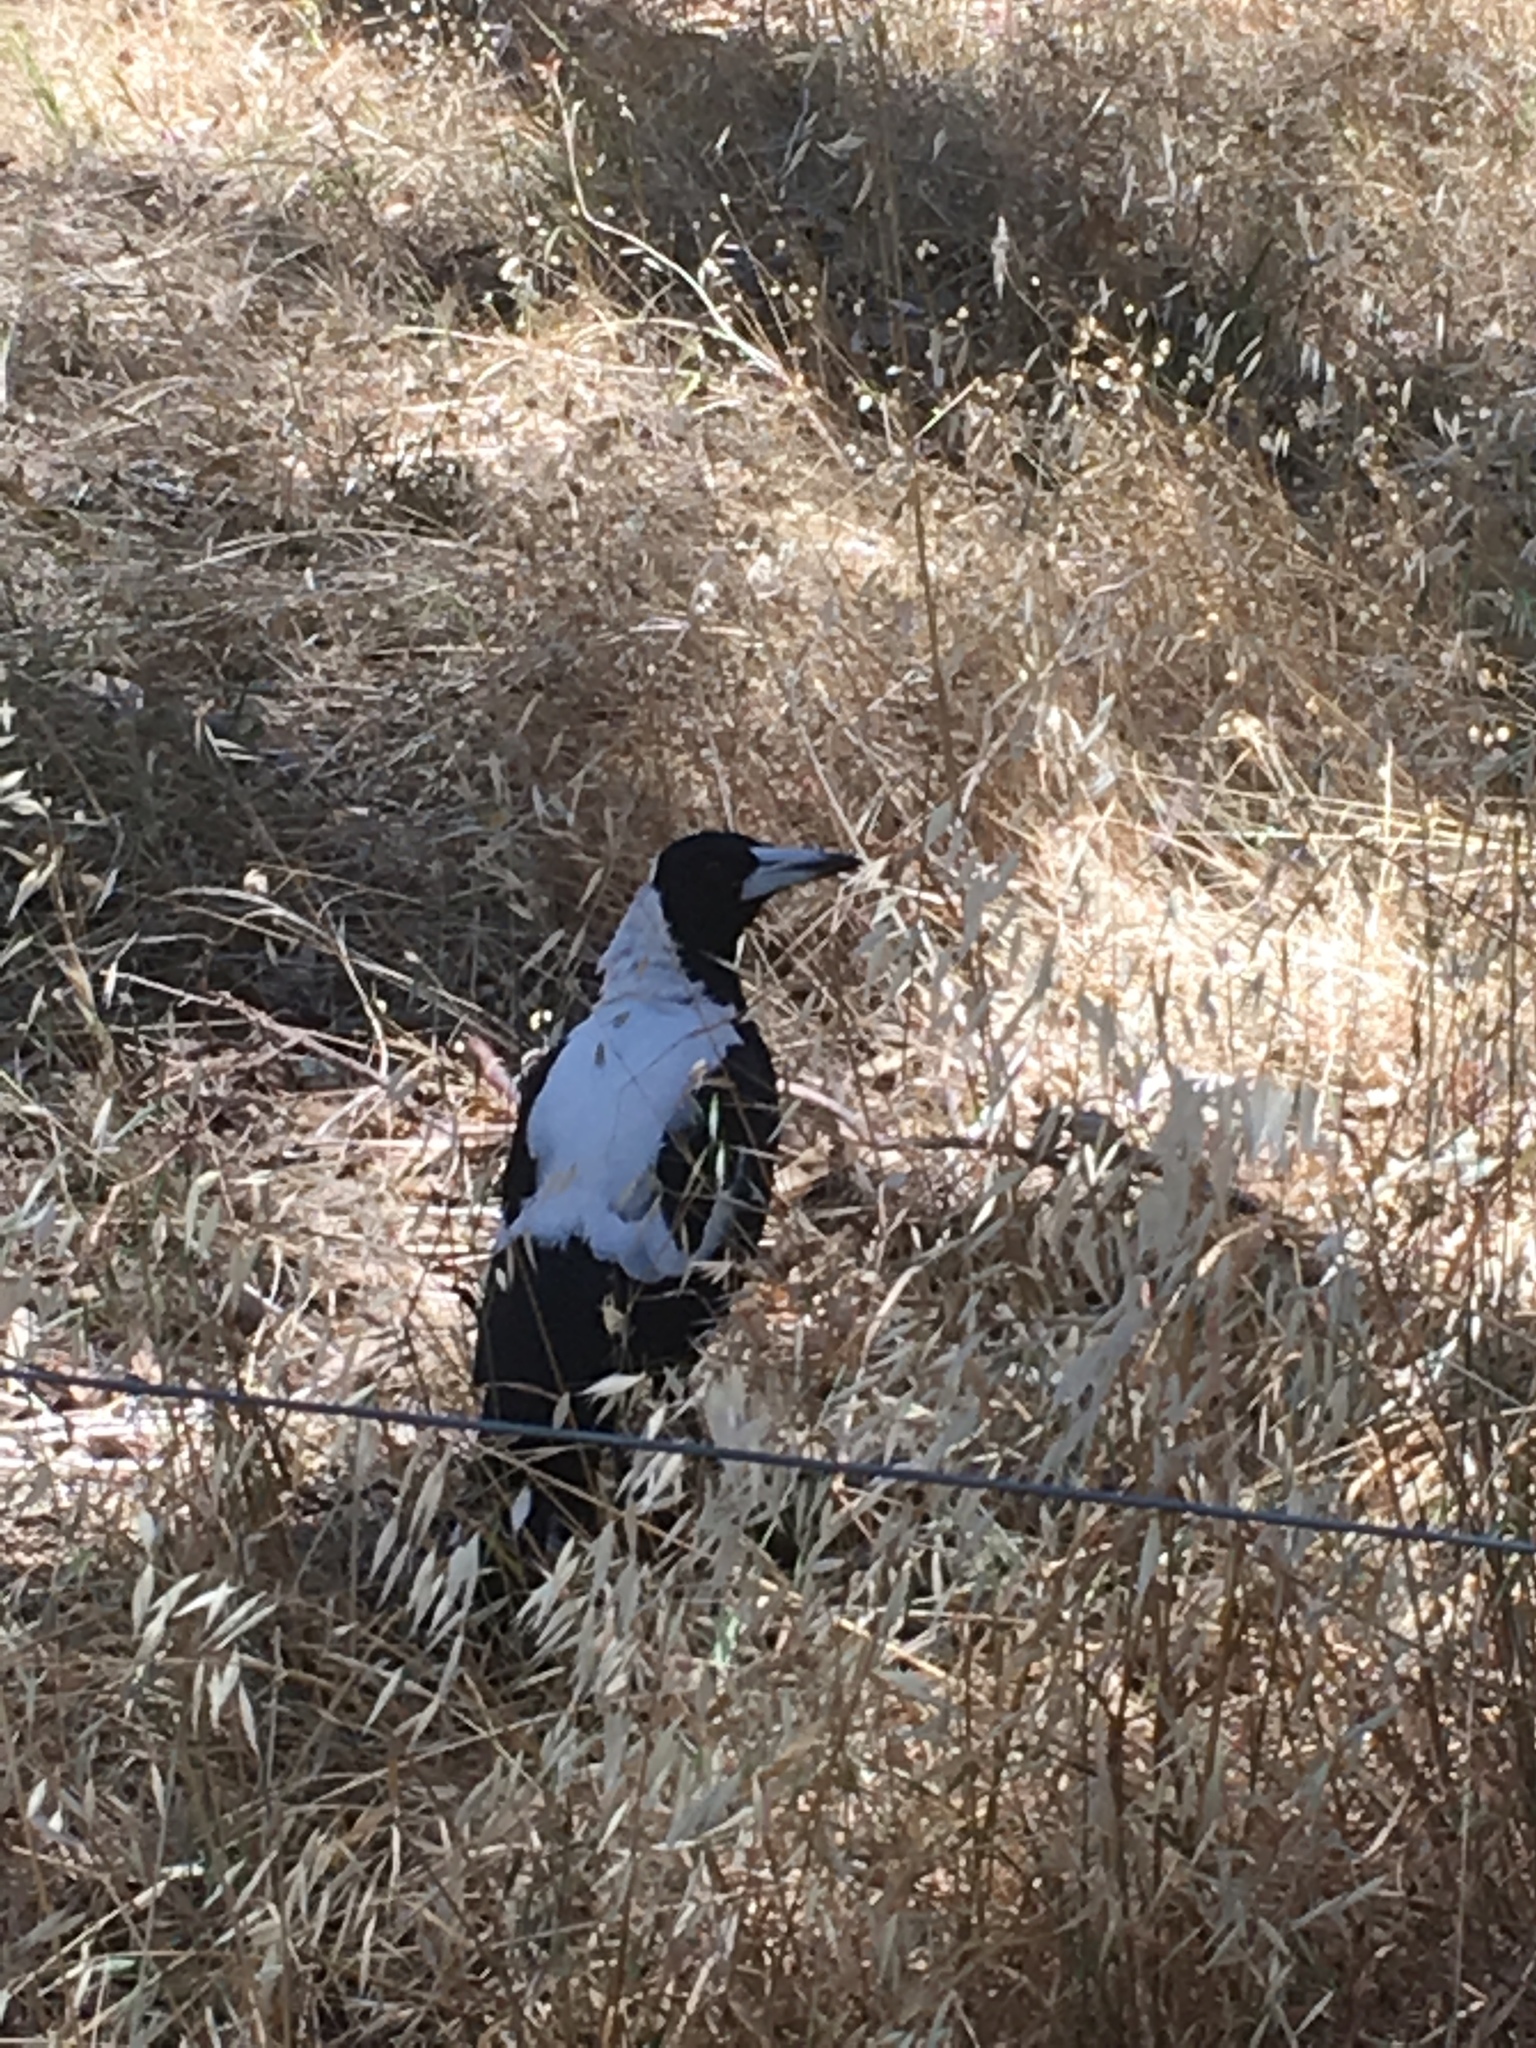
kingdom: Animalia
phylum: Chordata
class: Aves
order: Passeriformes
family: Cracticidae
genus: Gymnorhina
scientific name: Gymnorhina tibicen
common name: Australian magpie
